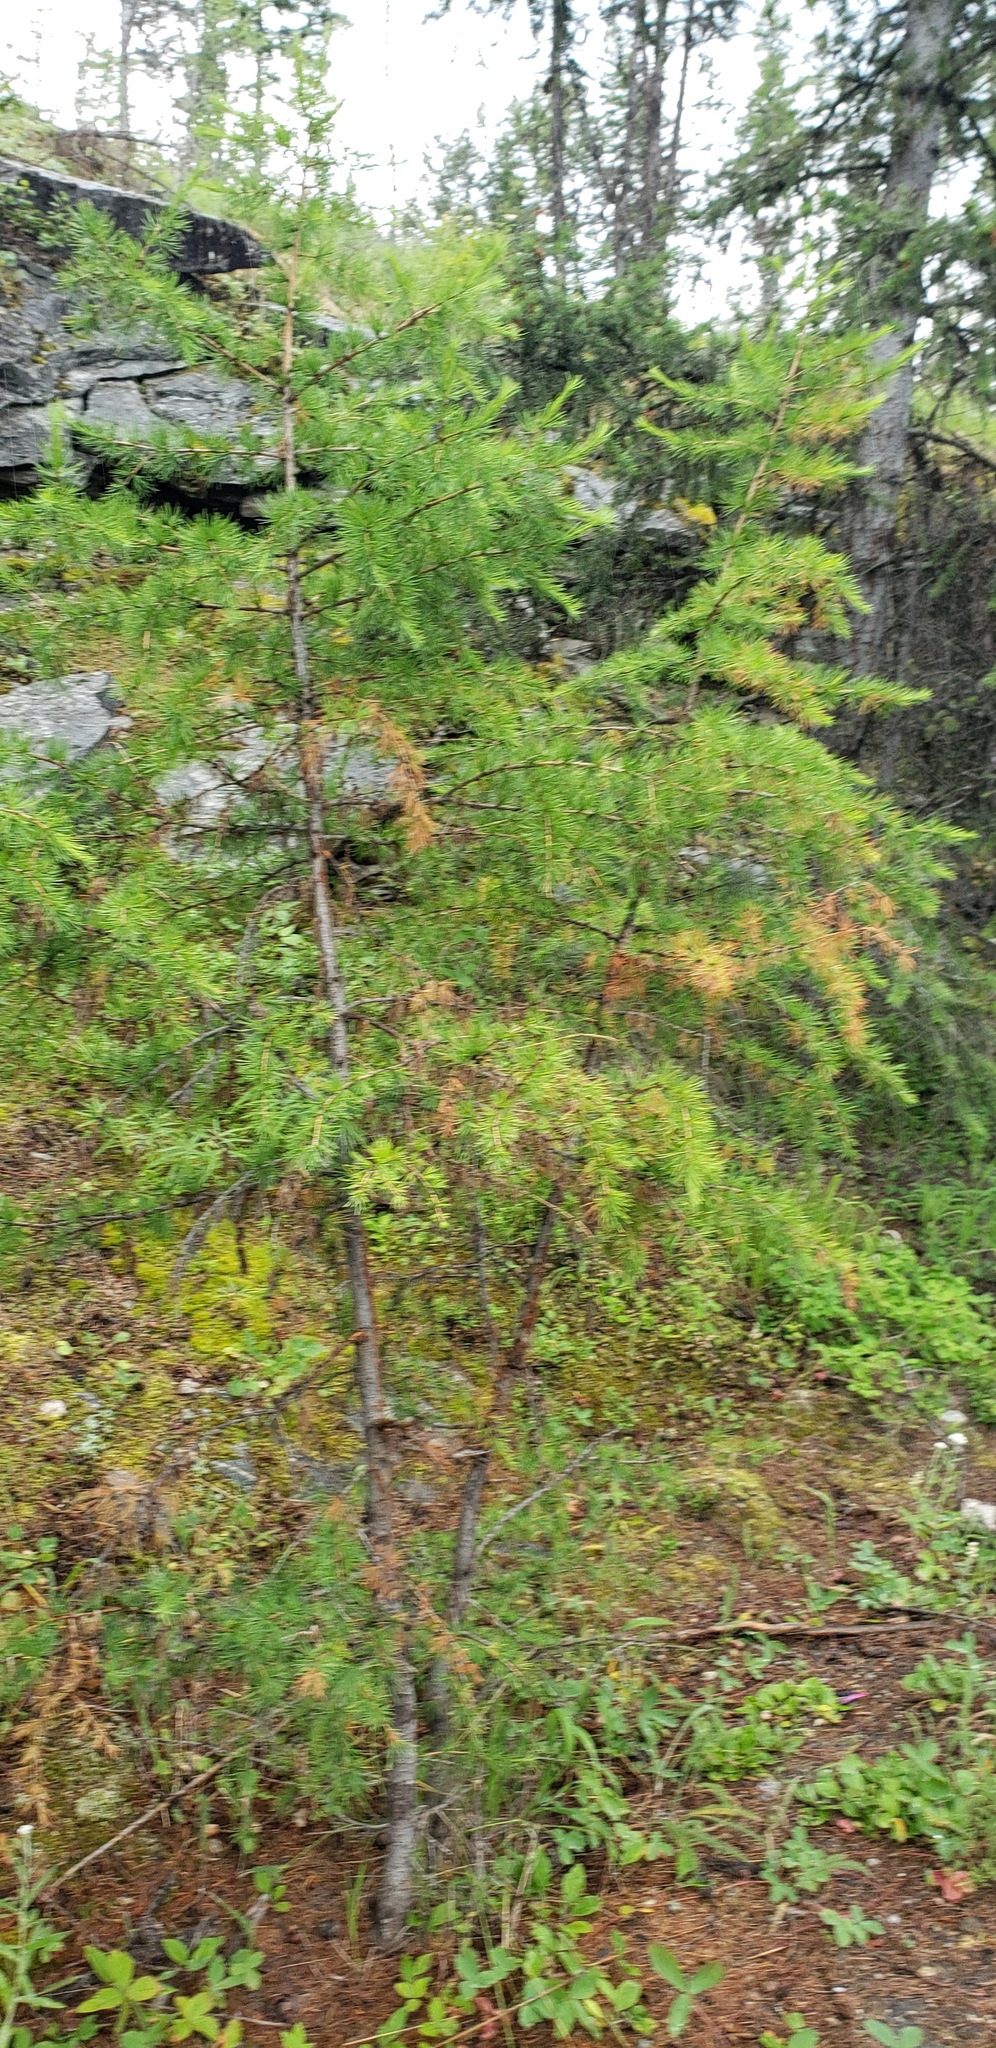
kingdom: Plantae
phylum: Tracheophyta
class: Pinopsida
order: Pinales
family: Pinaceae
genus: Larix
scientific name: Larix occidentalis
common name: Western larch
